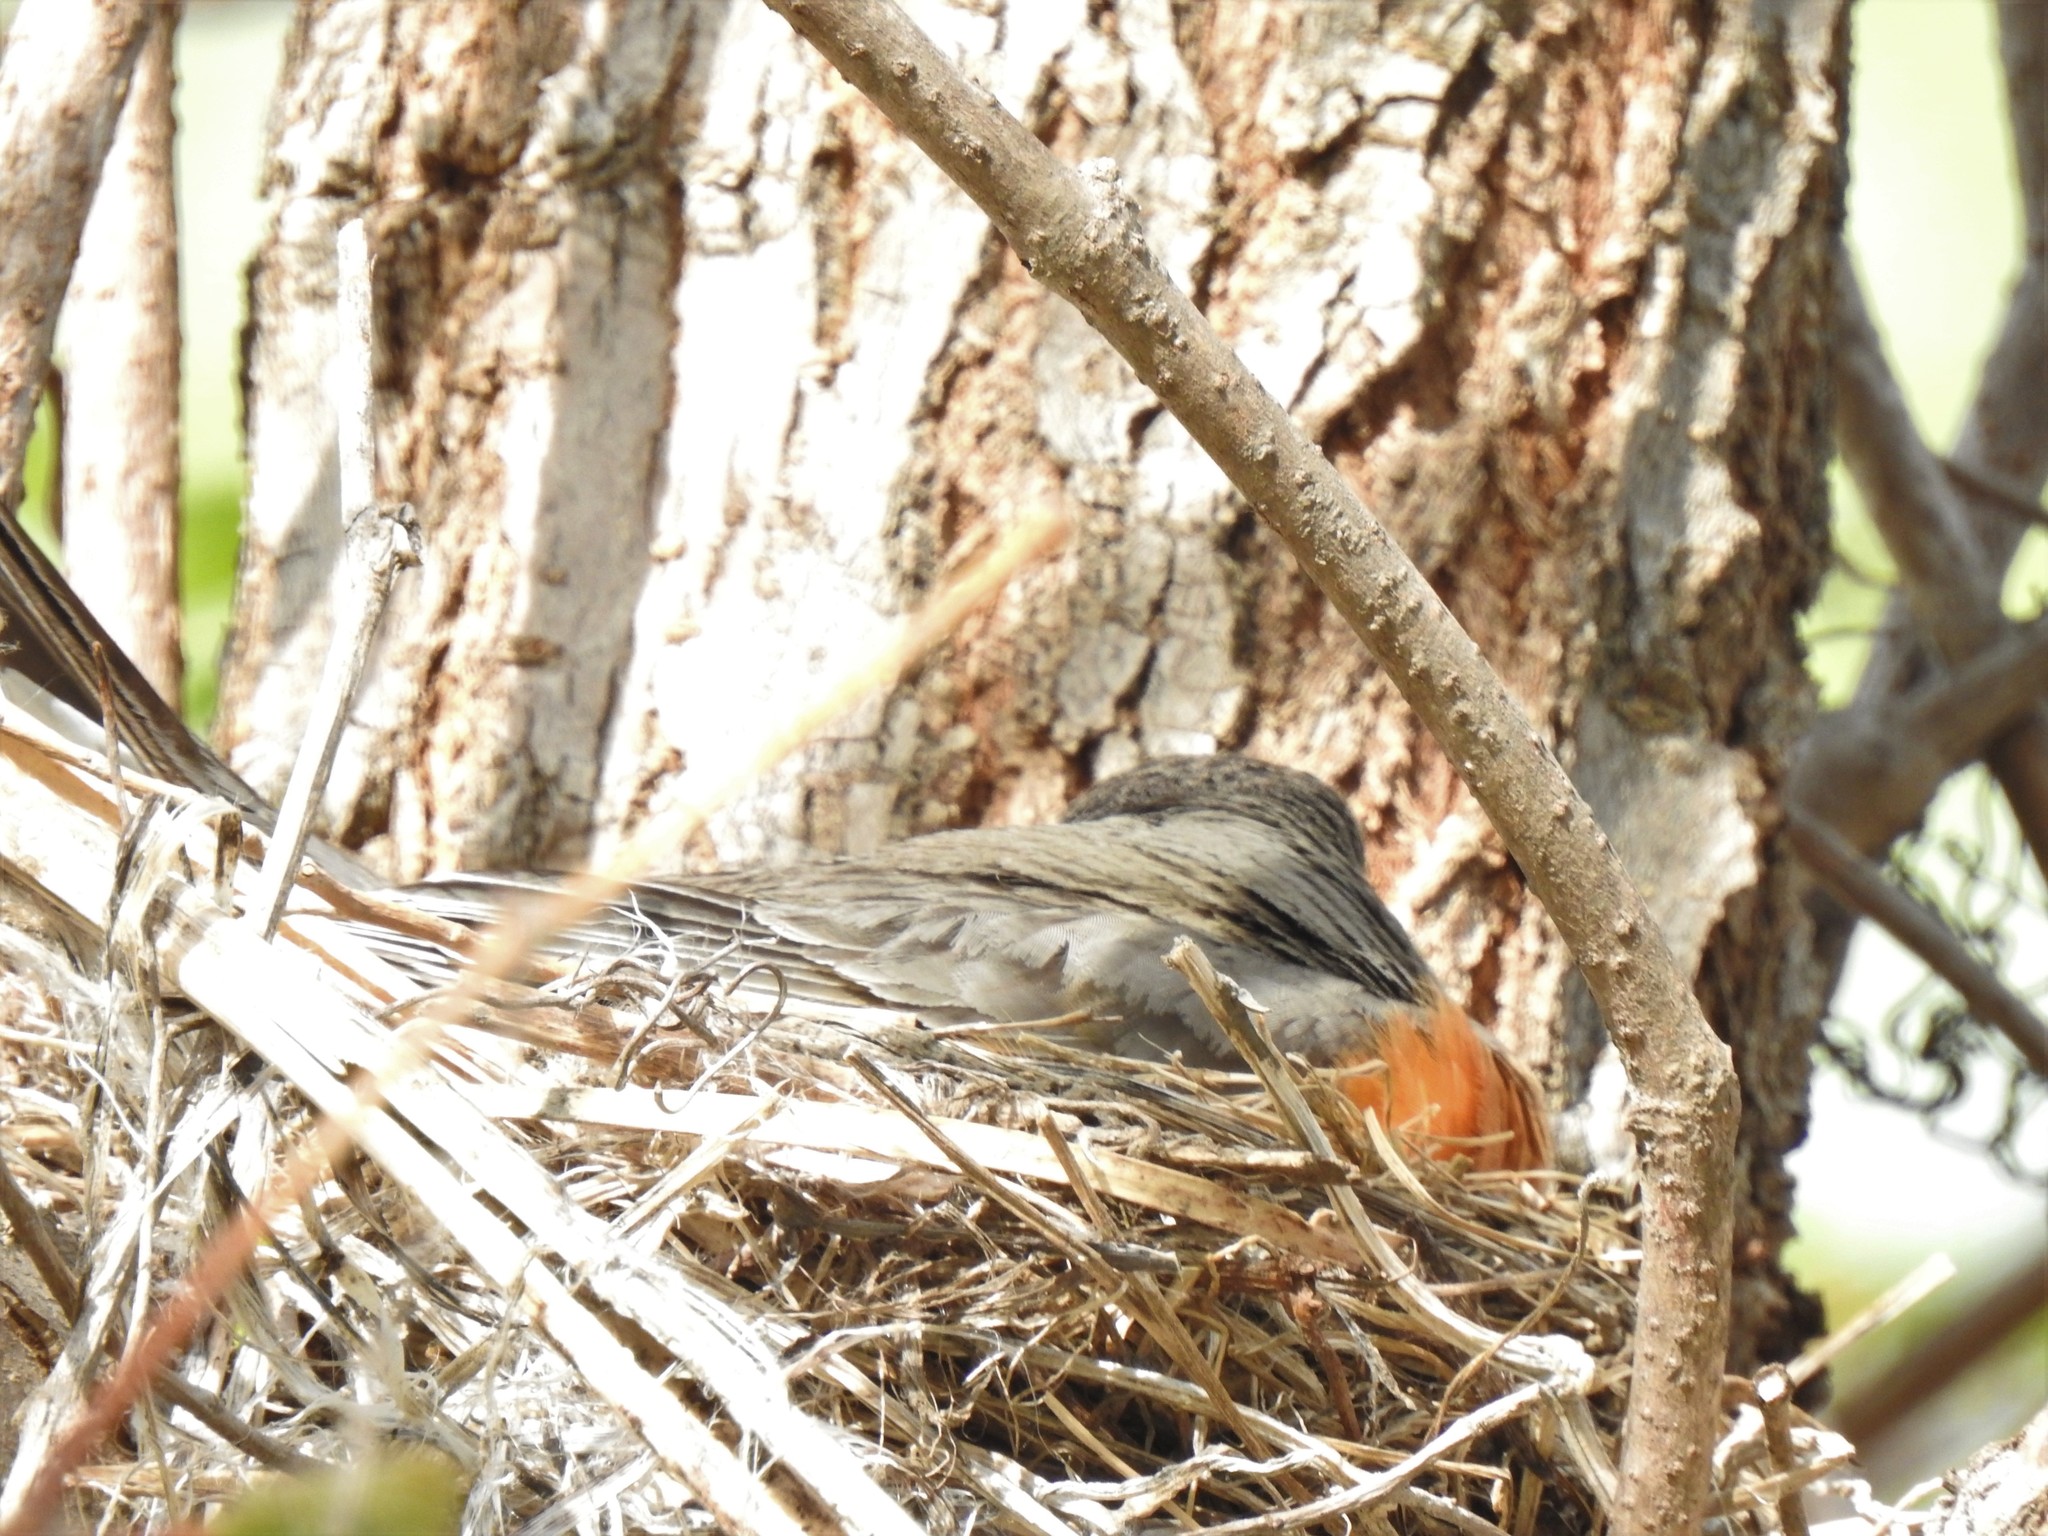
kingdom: Animalia
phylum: Chordata
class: Aves
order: Passeriformes
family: Turdidae
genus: Turdus
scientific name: Turdus migratorius
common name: American robin
